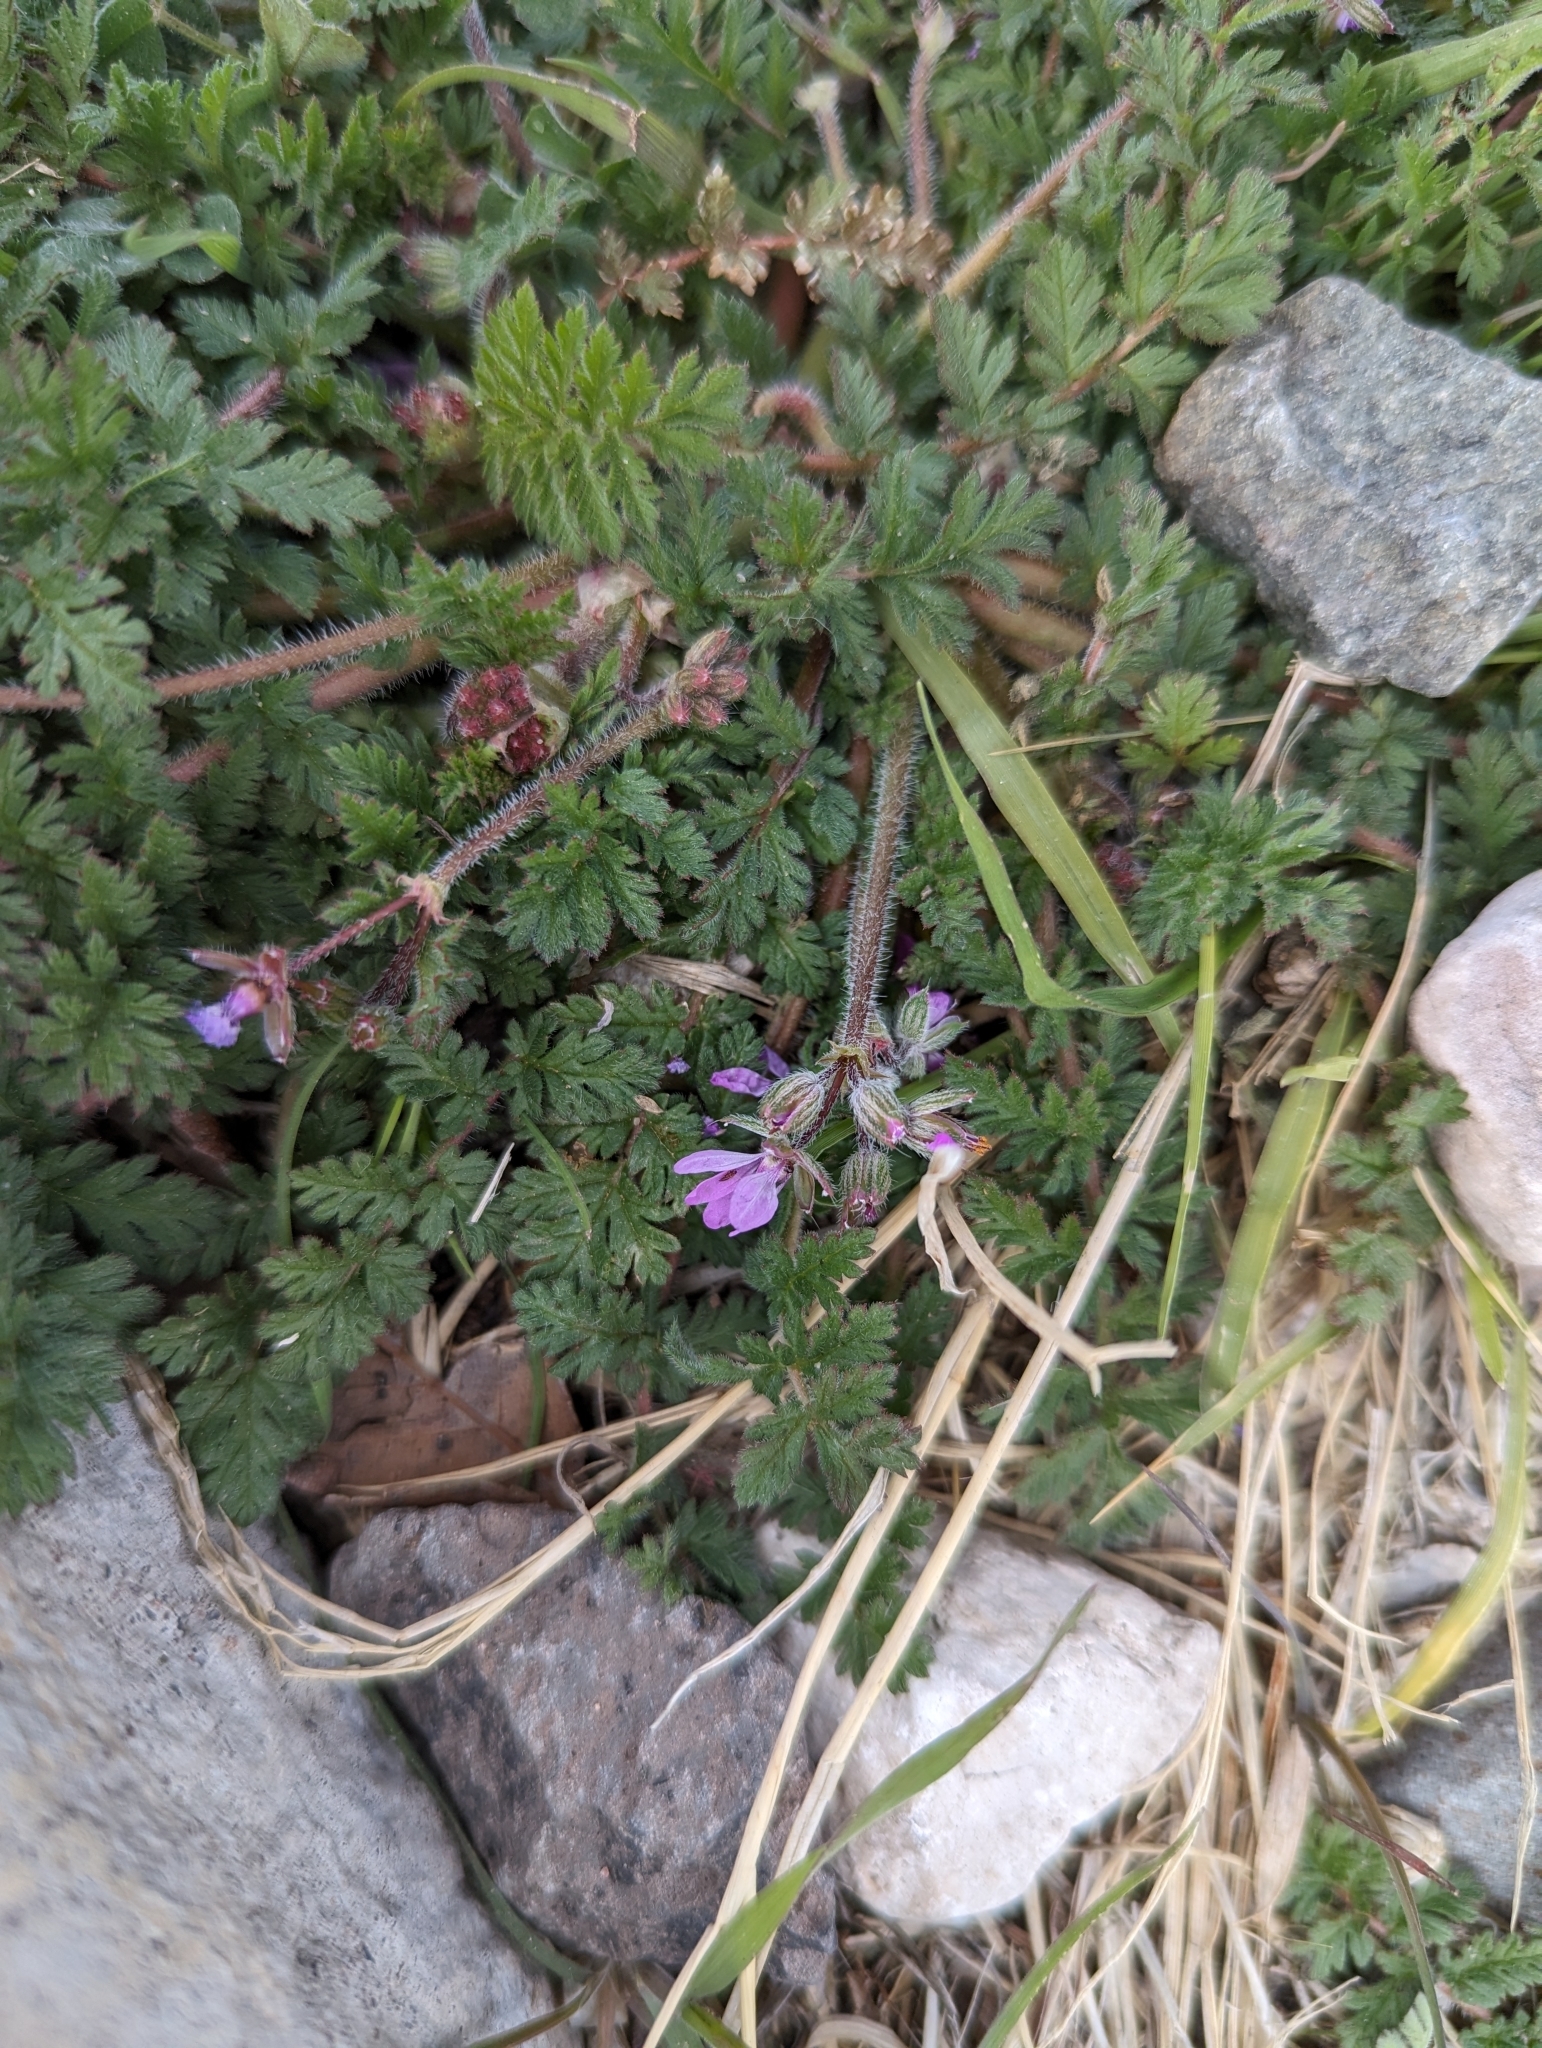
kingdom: Plantae
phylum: Tracheophyta
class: Magnoliopsida
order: Geraniales
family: Geraniaceae
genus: Erodium
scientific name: Erodium cicutarium
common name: Common stork's-bill
